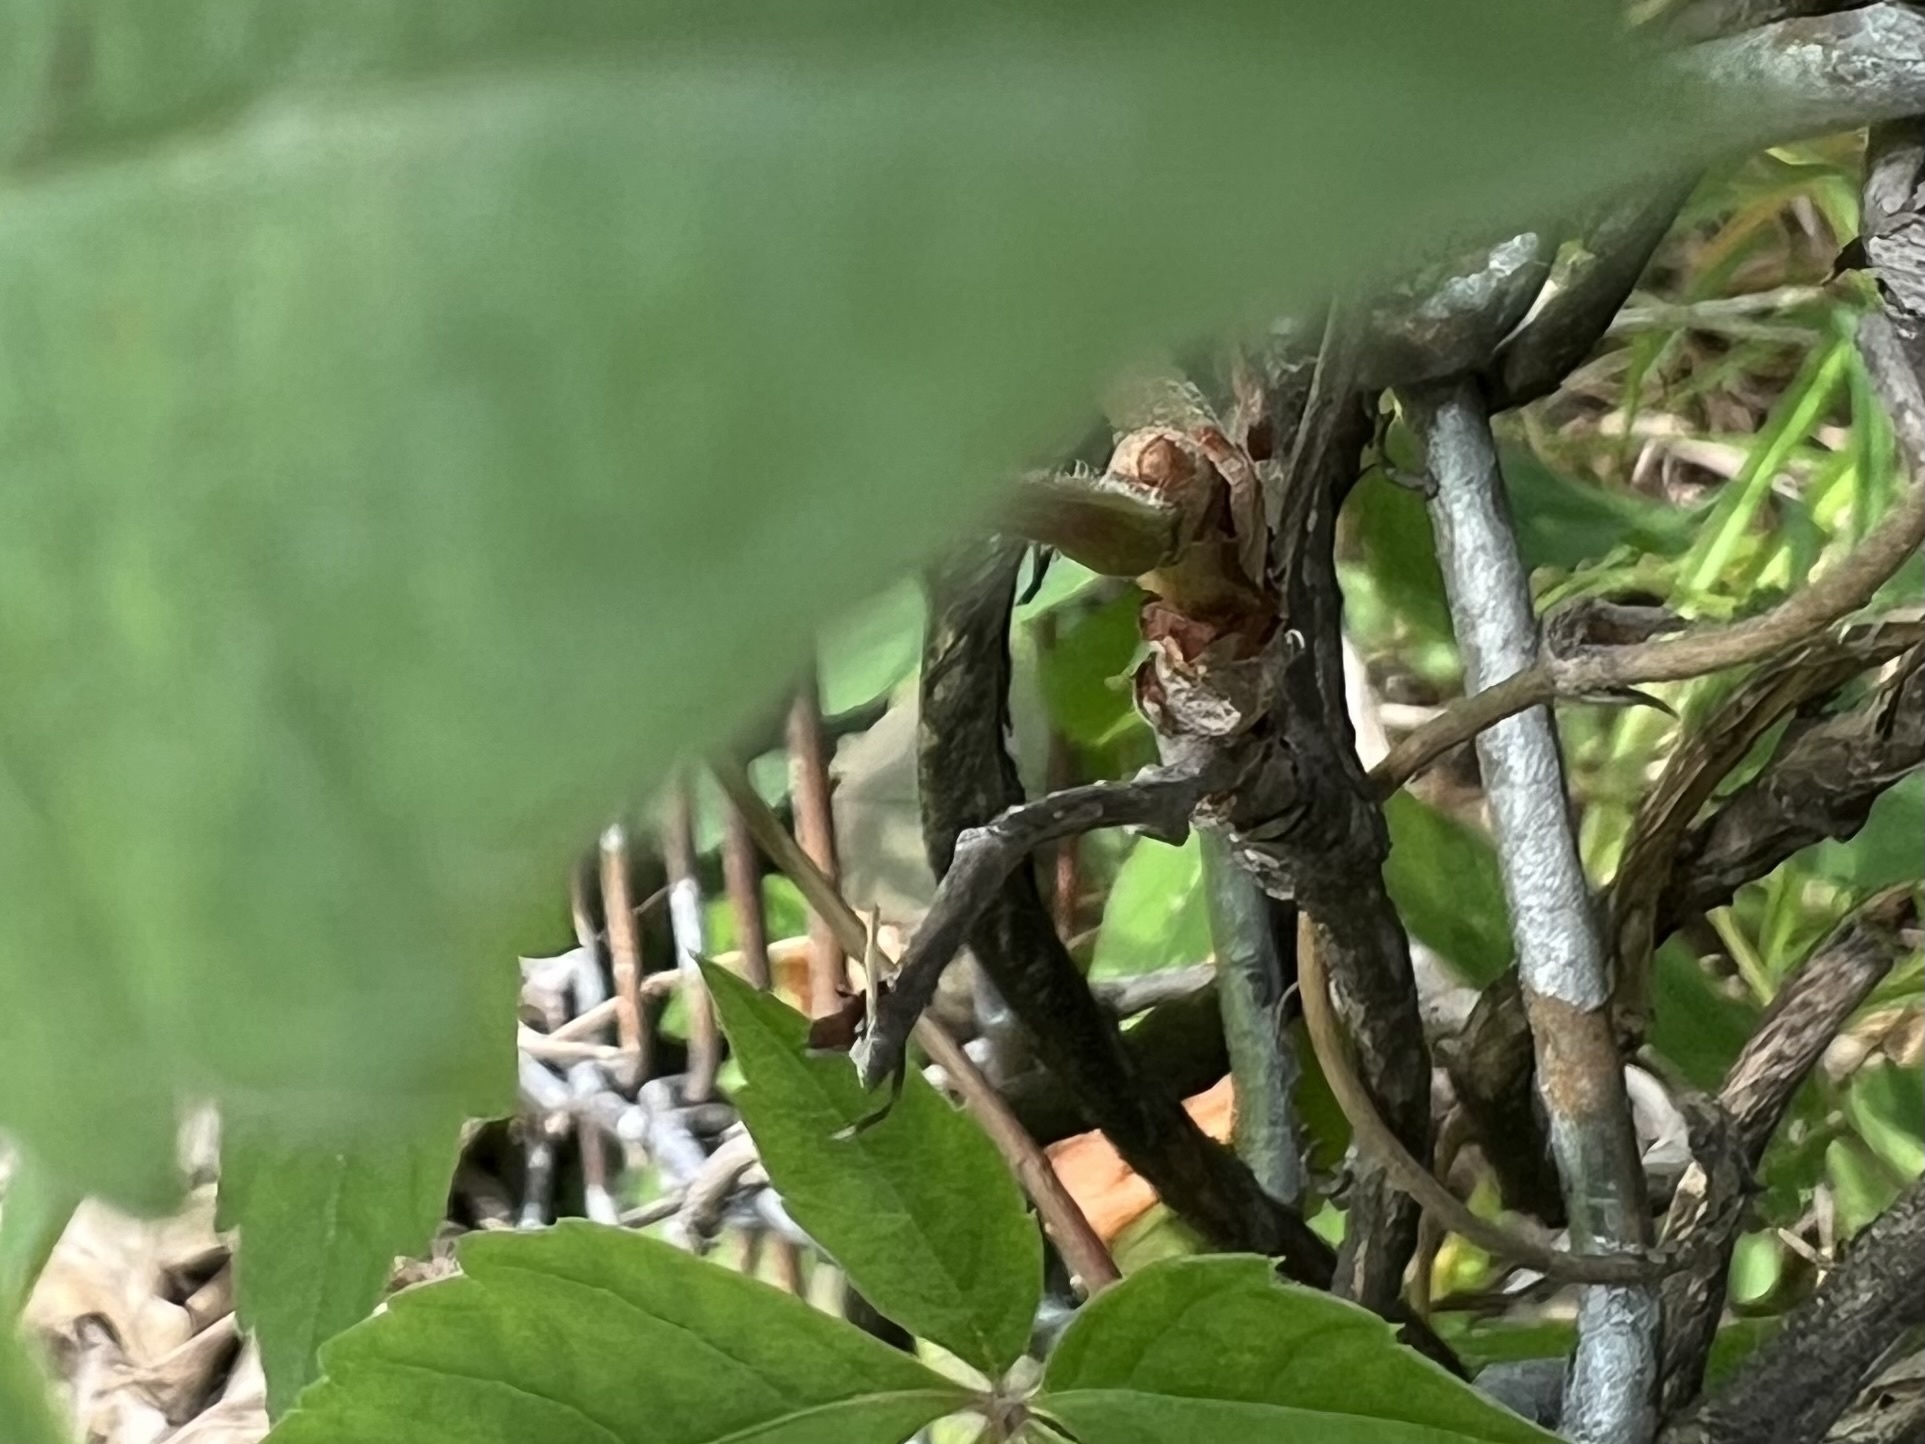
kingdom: Plantae
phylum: Tracheophyta
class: Magnoliopsida
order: Vitales
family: Vitaceae
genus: Parthenocissus
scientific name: Parthenocissus quinquefolia
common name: Virginia-creeper
